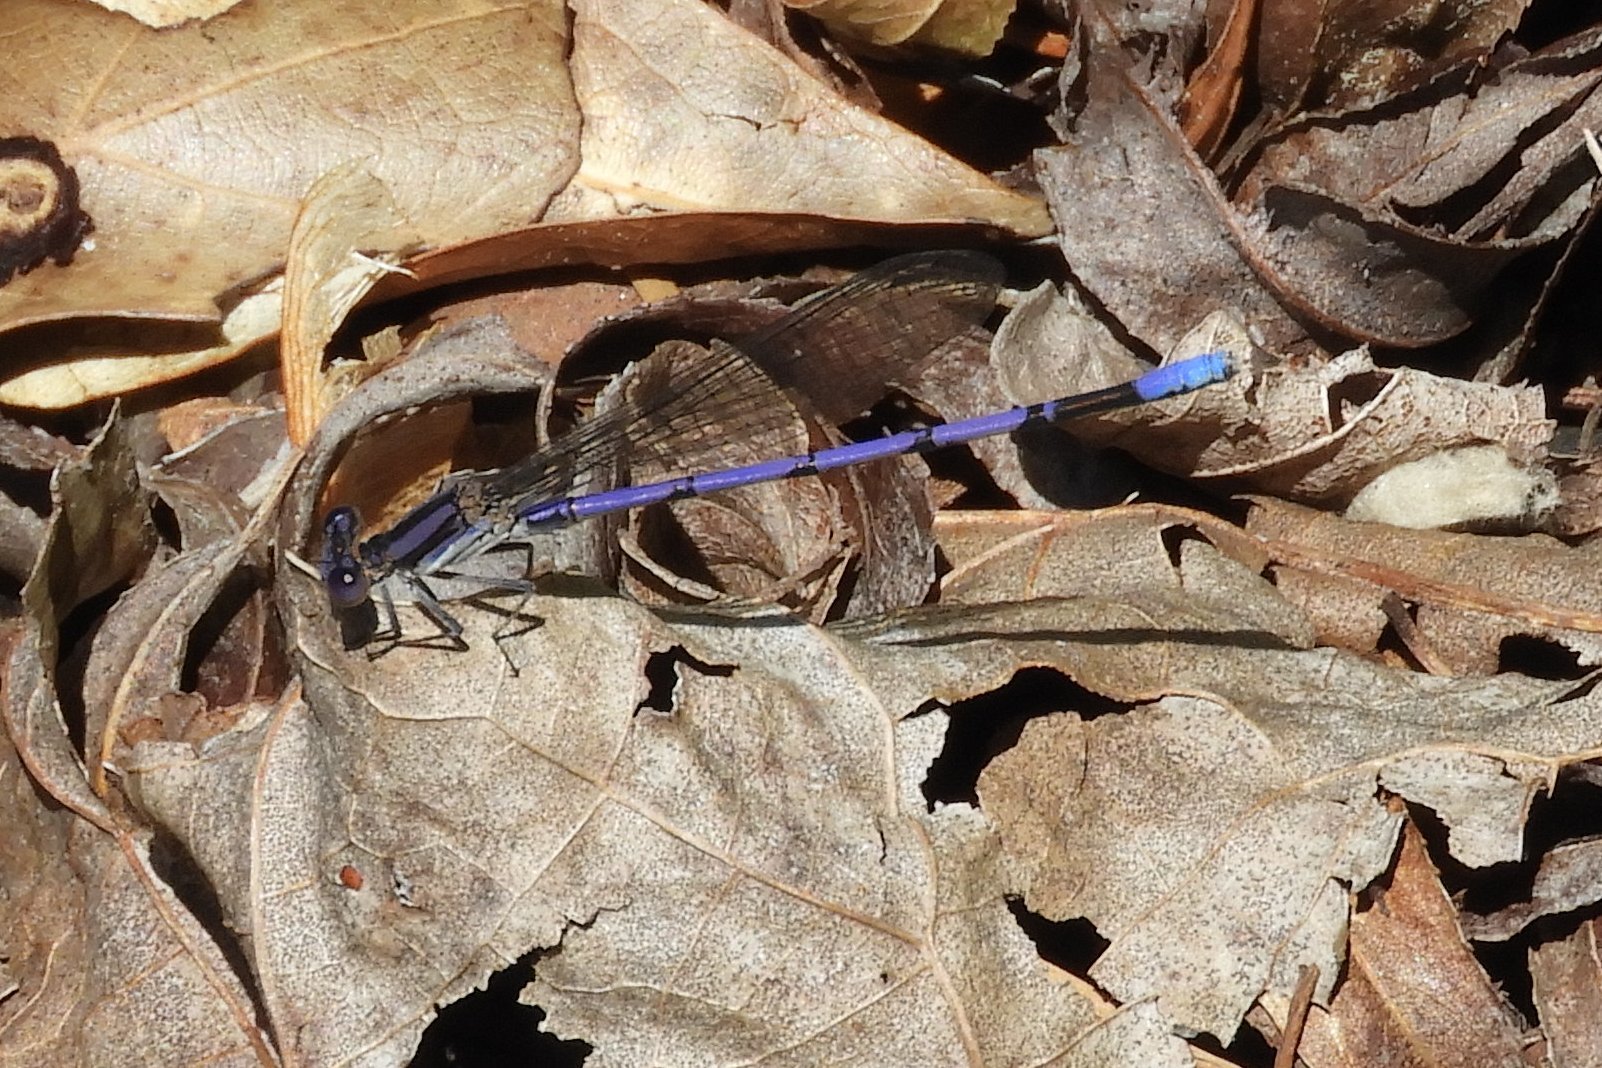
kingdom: Animalia
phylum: Arthropoda
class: Insecta
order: Odonata
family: Coenagrionidae
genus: Argia
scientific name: Argia fumipennis
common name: Variable dancer
